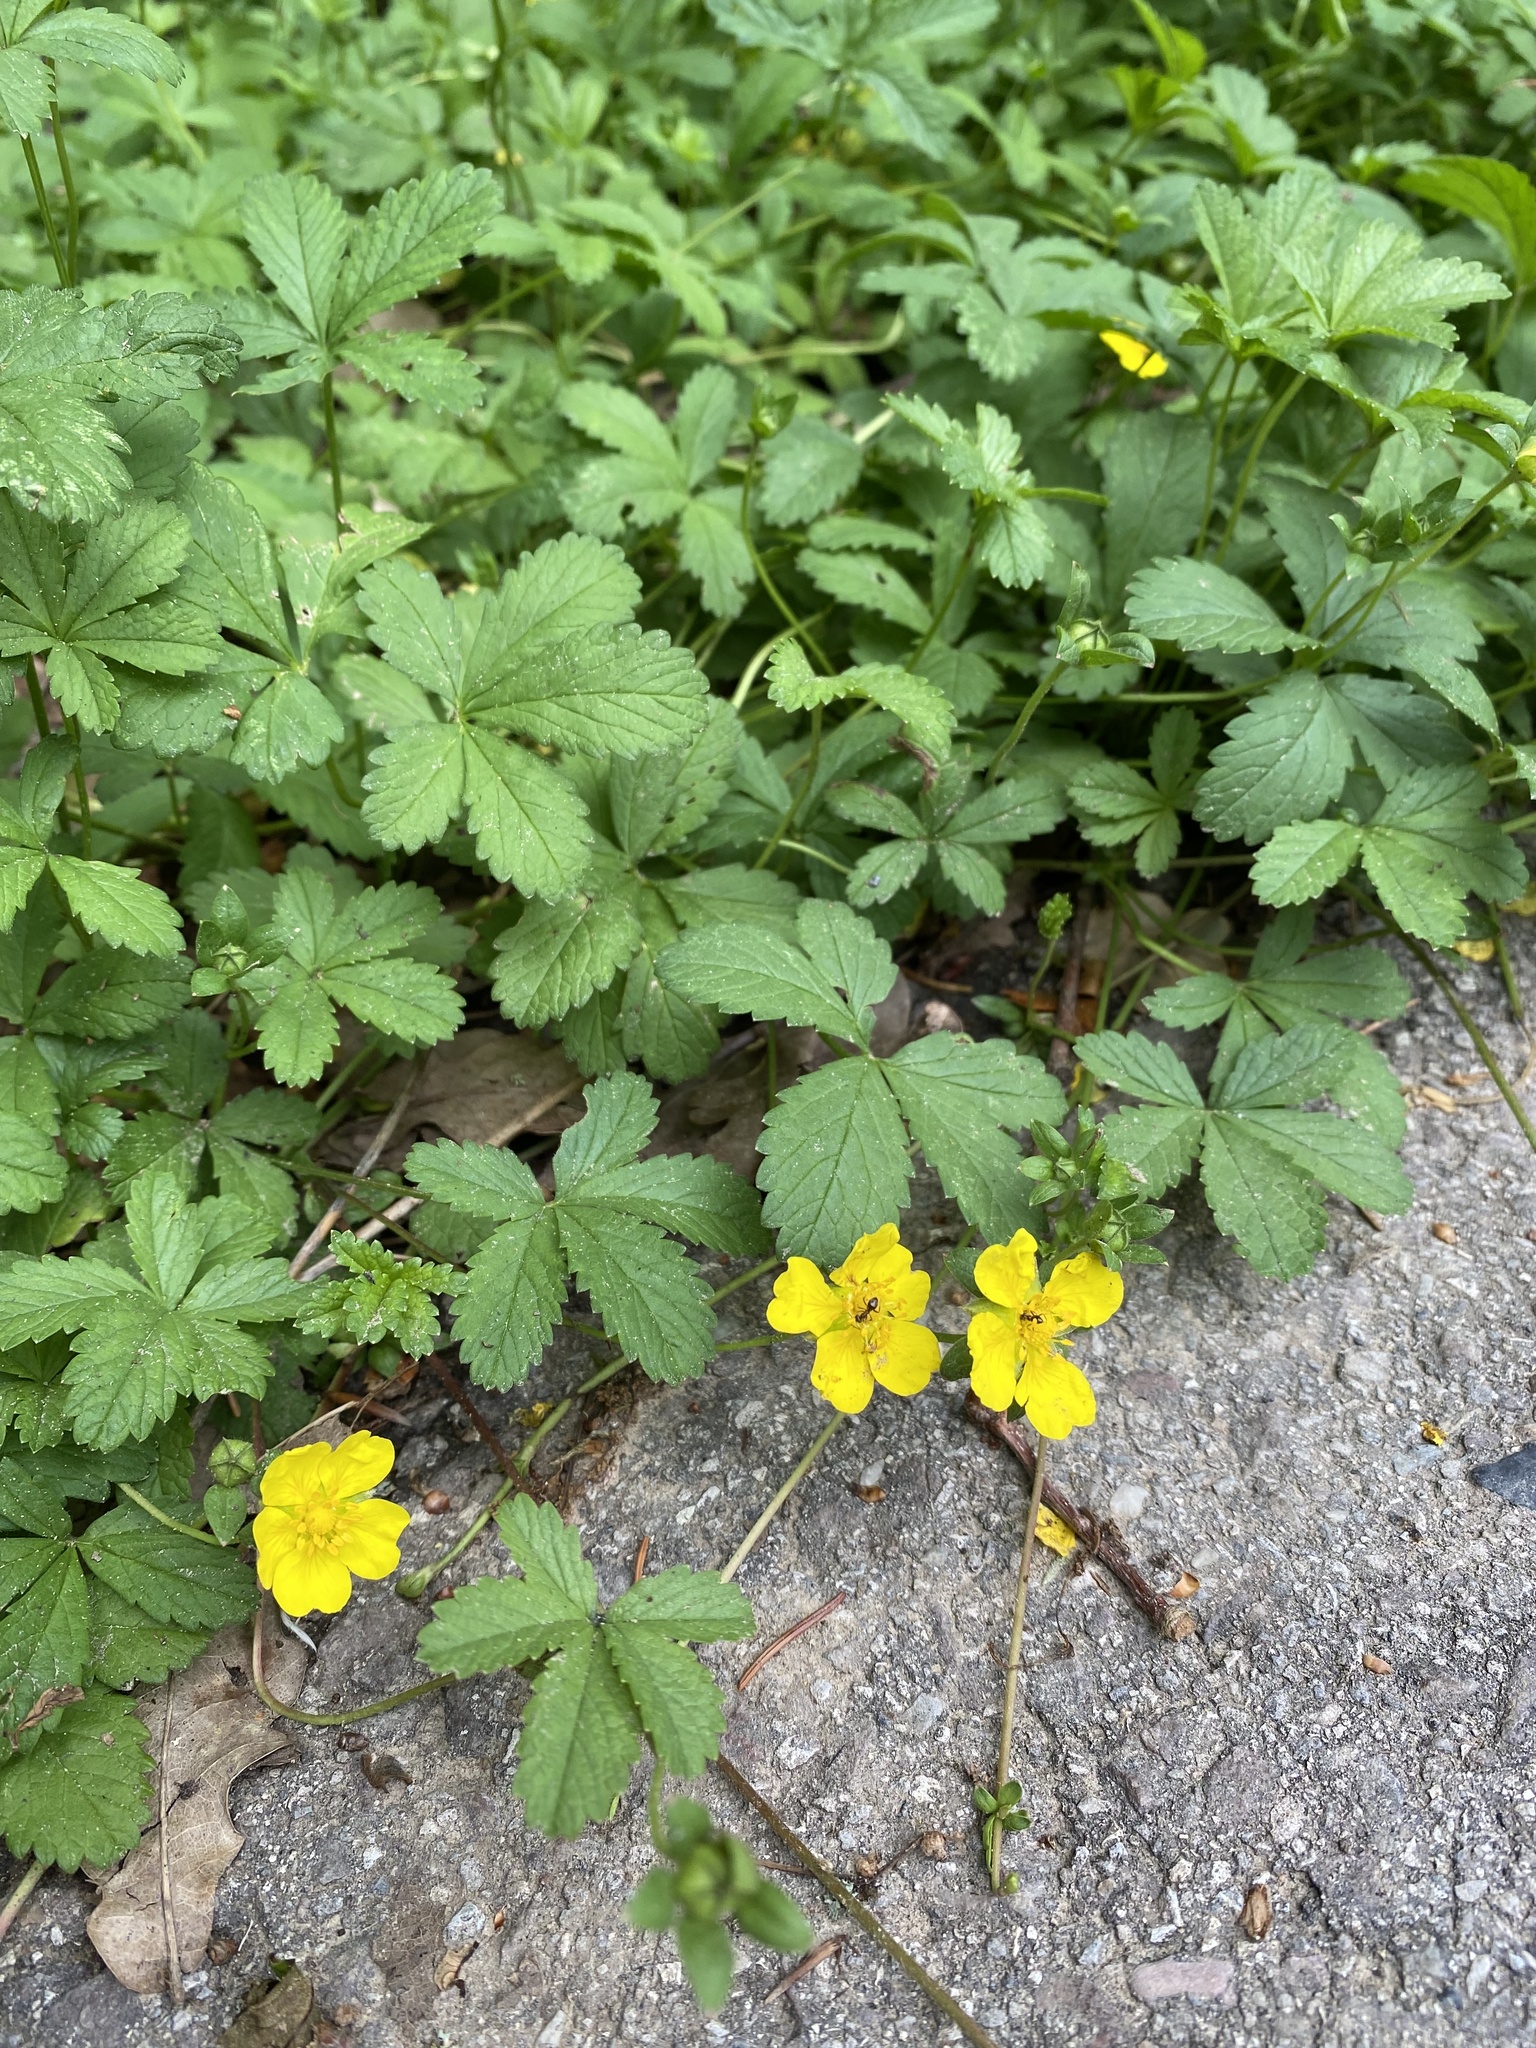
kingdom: Plantae
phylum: Tracheophyta
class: Magnoliopsida
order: Rosales
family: Rosaceae
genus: Potentilla
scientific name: Potentilla reptans
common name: Creeping cinquefoil
